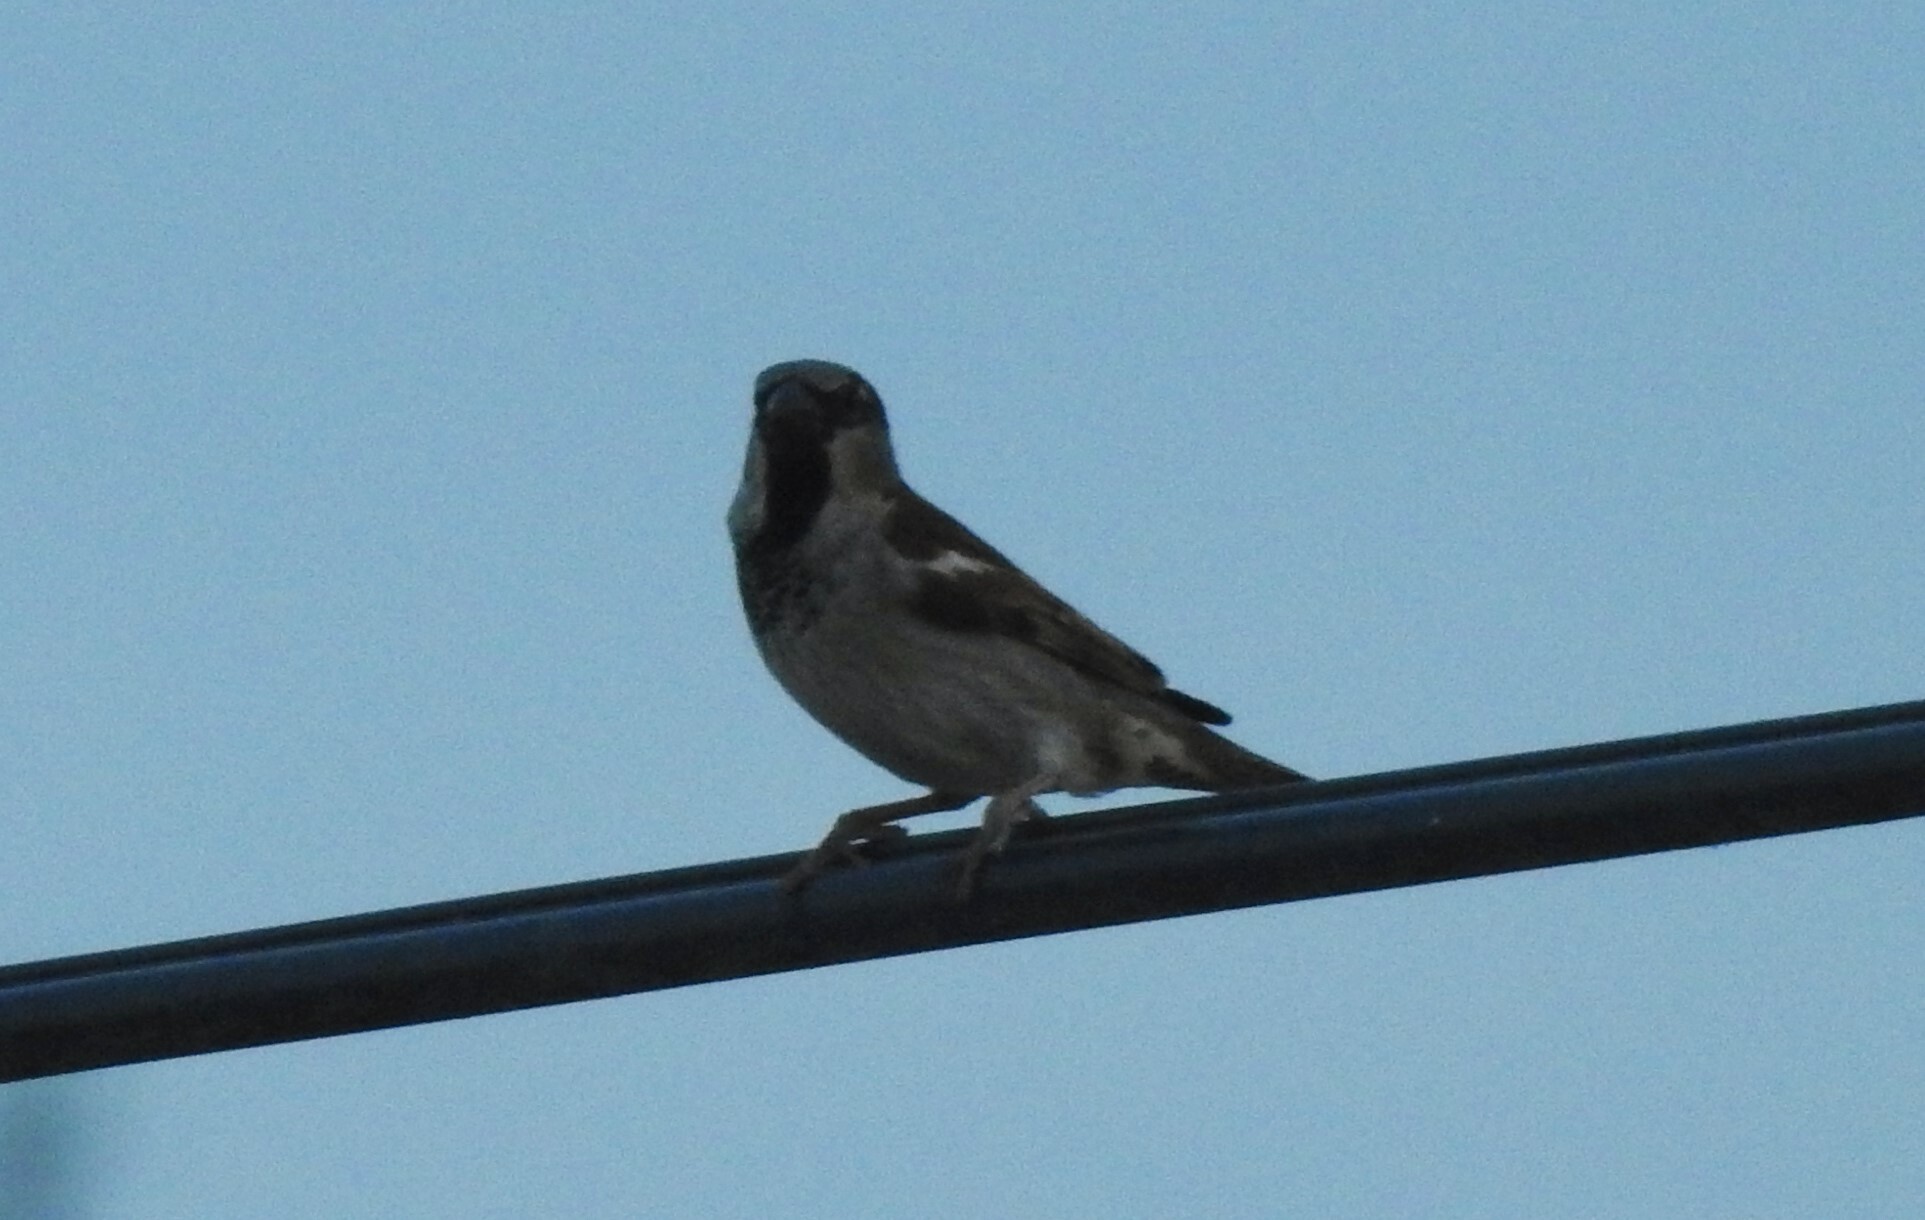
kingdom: Animalia
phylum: Chordata
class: Aves
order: Passeriformes
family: Passeridae
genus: Passer
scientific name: Passer domesticus
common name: House sparrow
